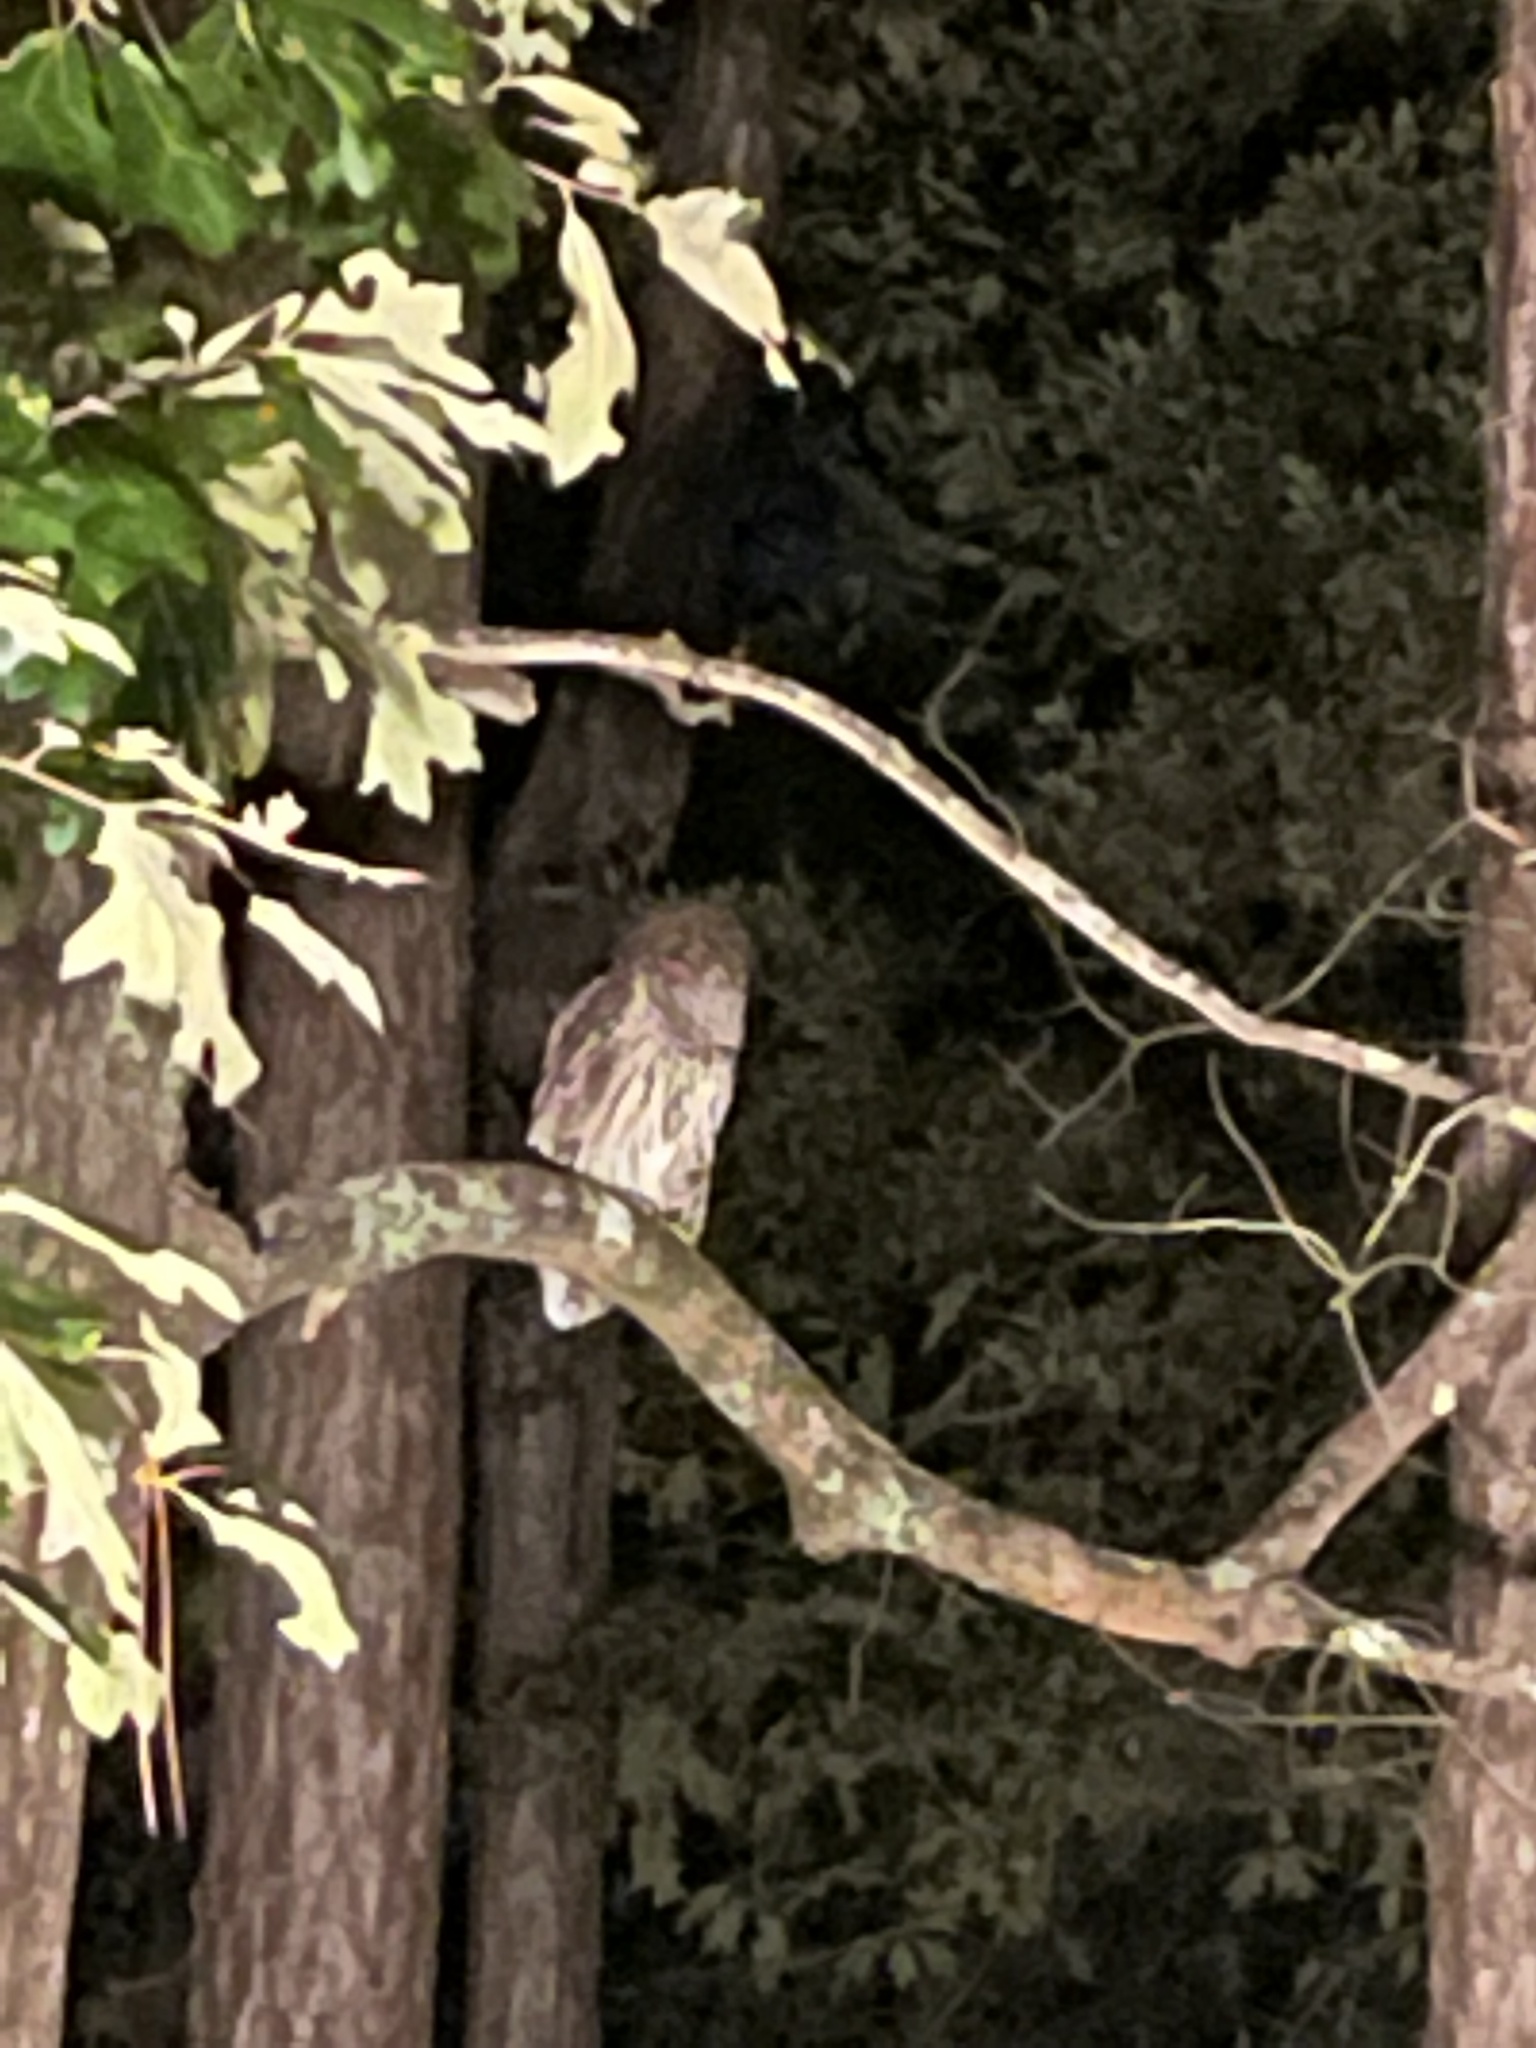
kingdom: Animalia
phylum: Chordata
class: Aves
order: Strigiformes
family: Strigidae
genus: Strix
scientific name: Strix varia
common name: Barred owl
